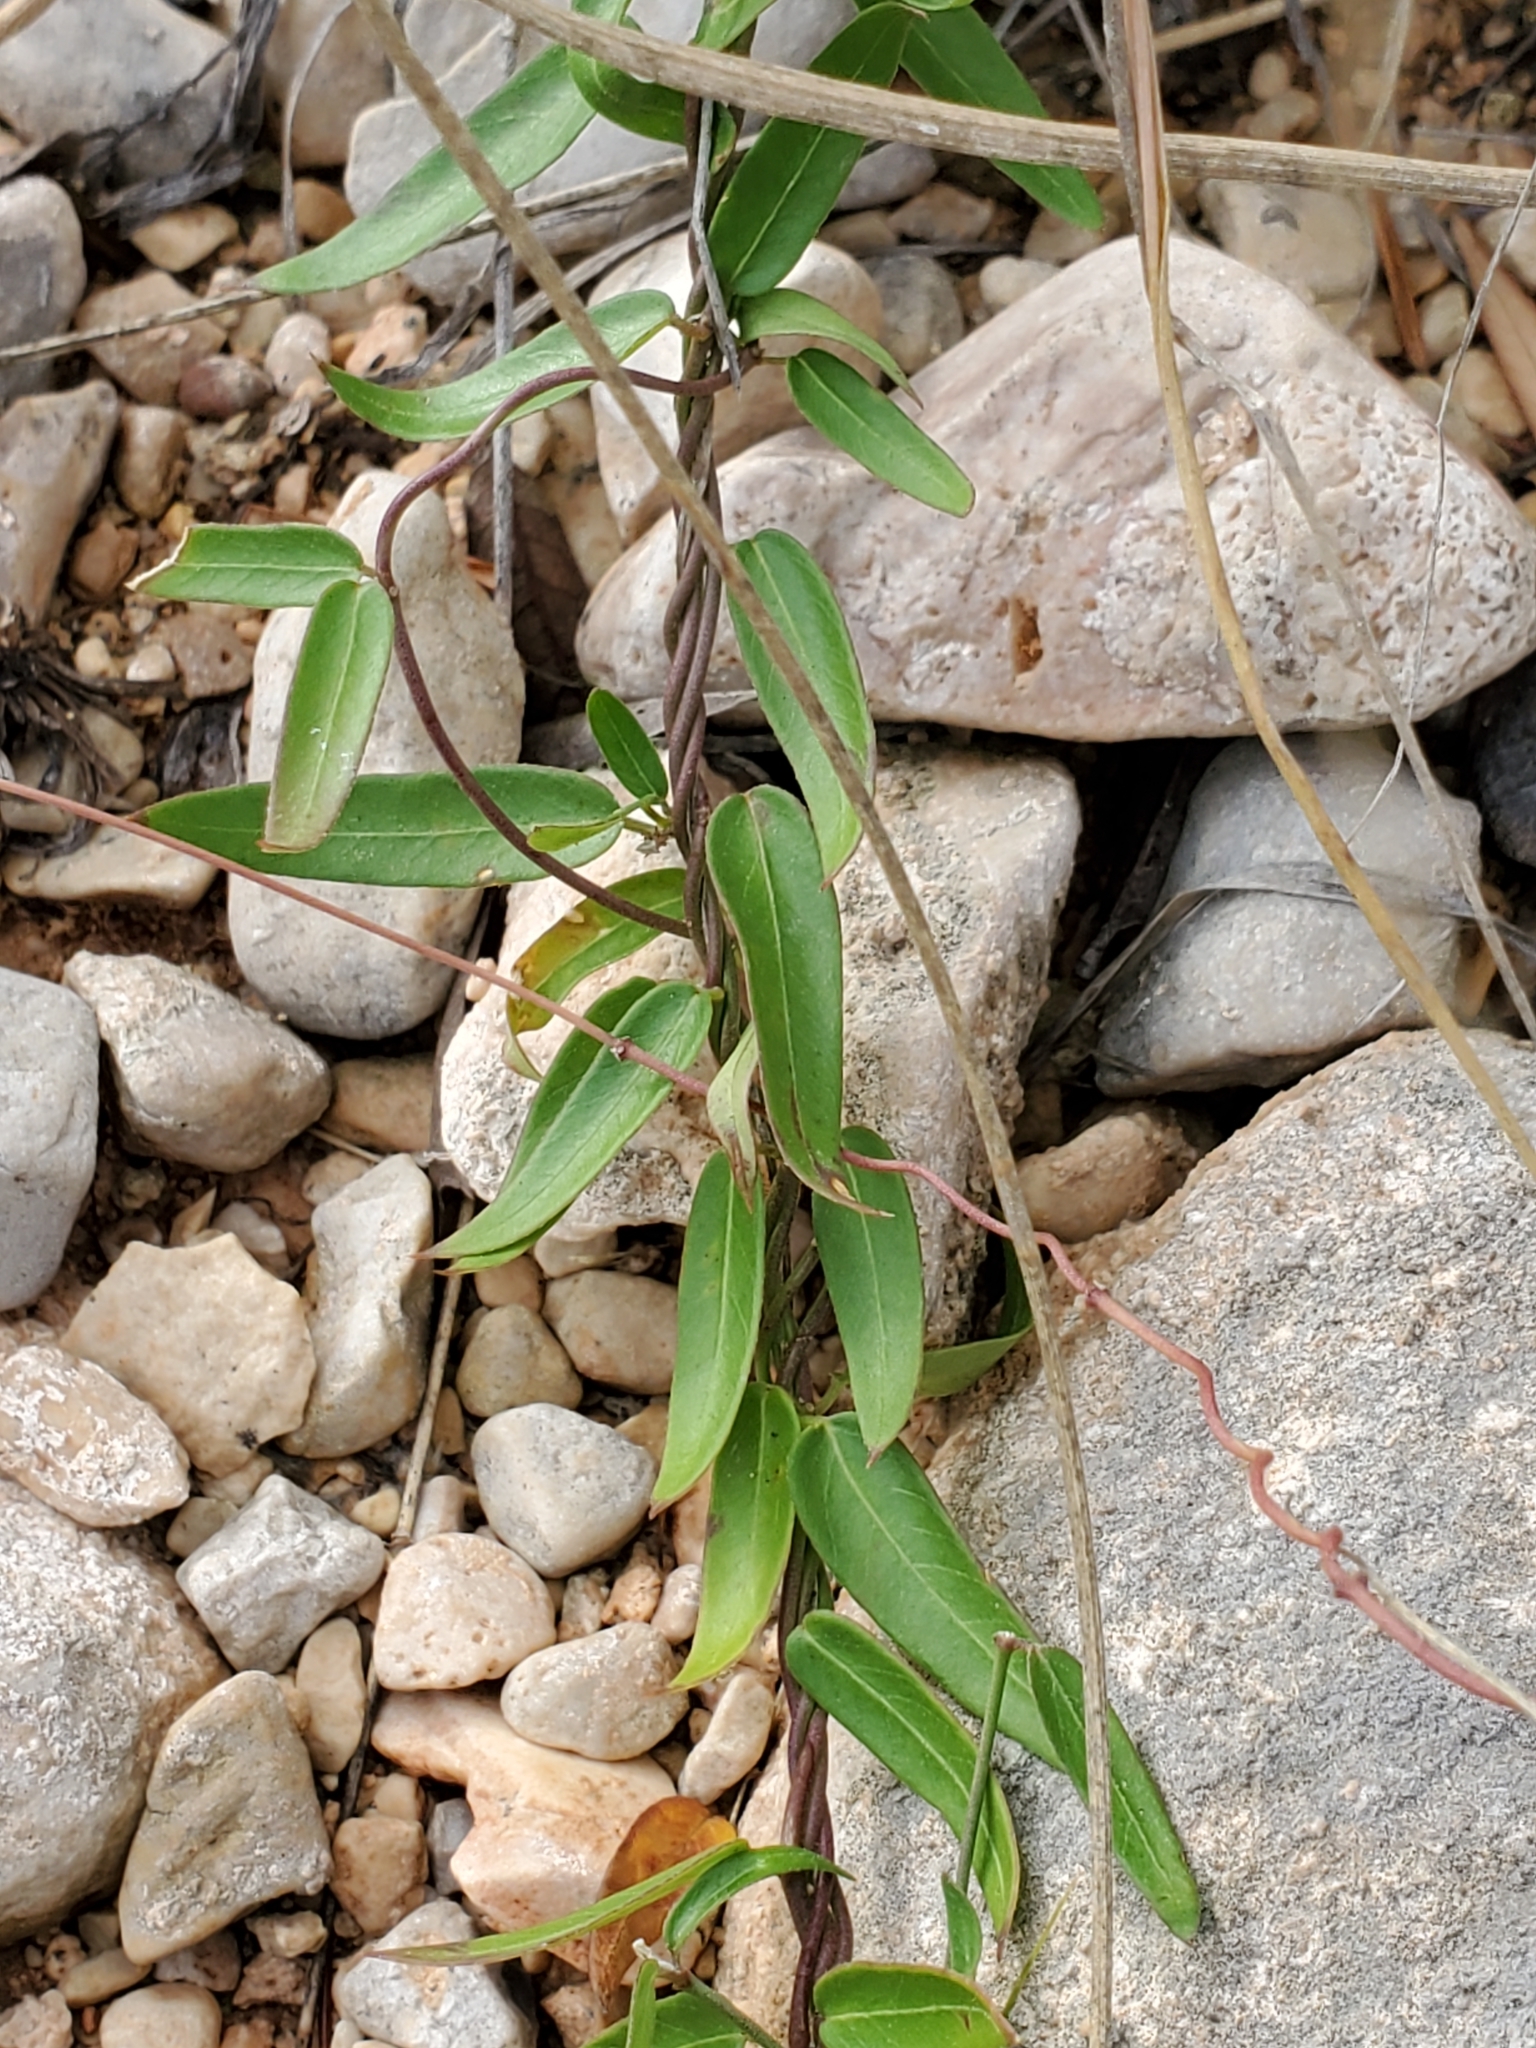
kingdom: Plantae
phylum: Tracheophyta
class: Magnoliopsida
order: Gentianales
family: Apocynaceae
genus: Metastelma
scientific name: Metastelma palmeri
